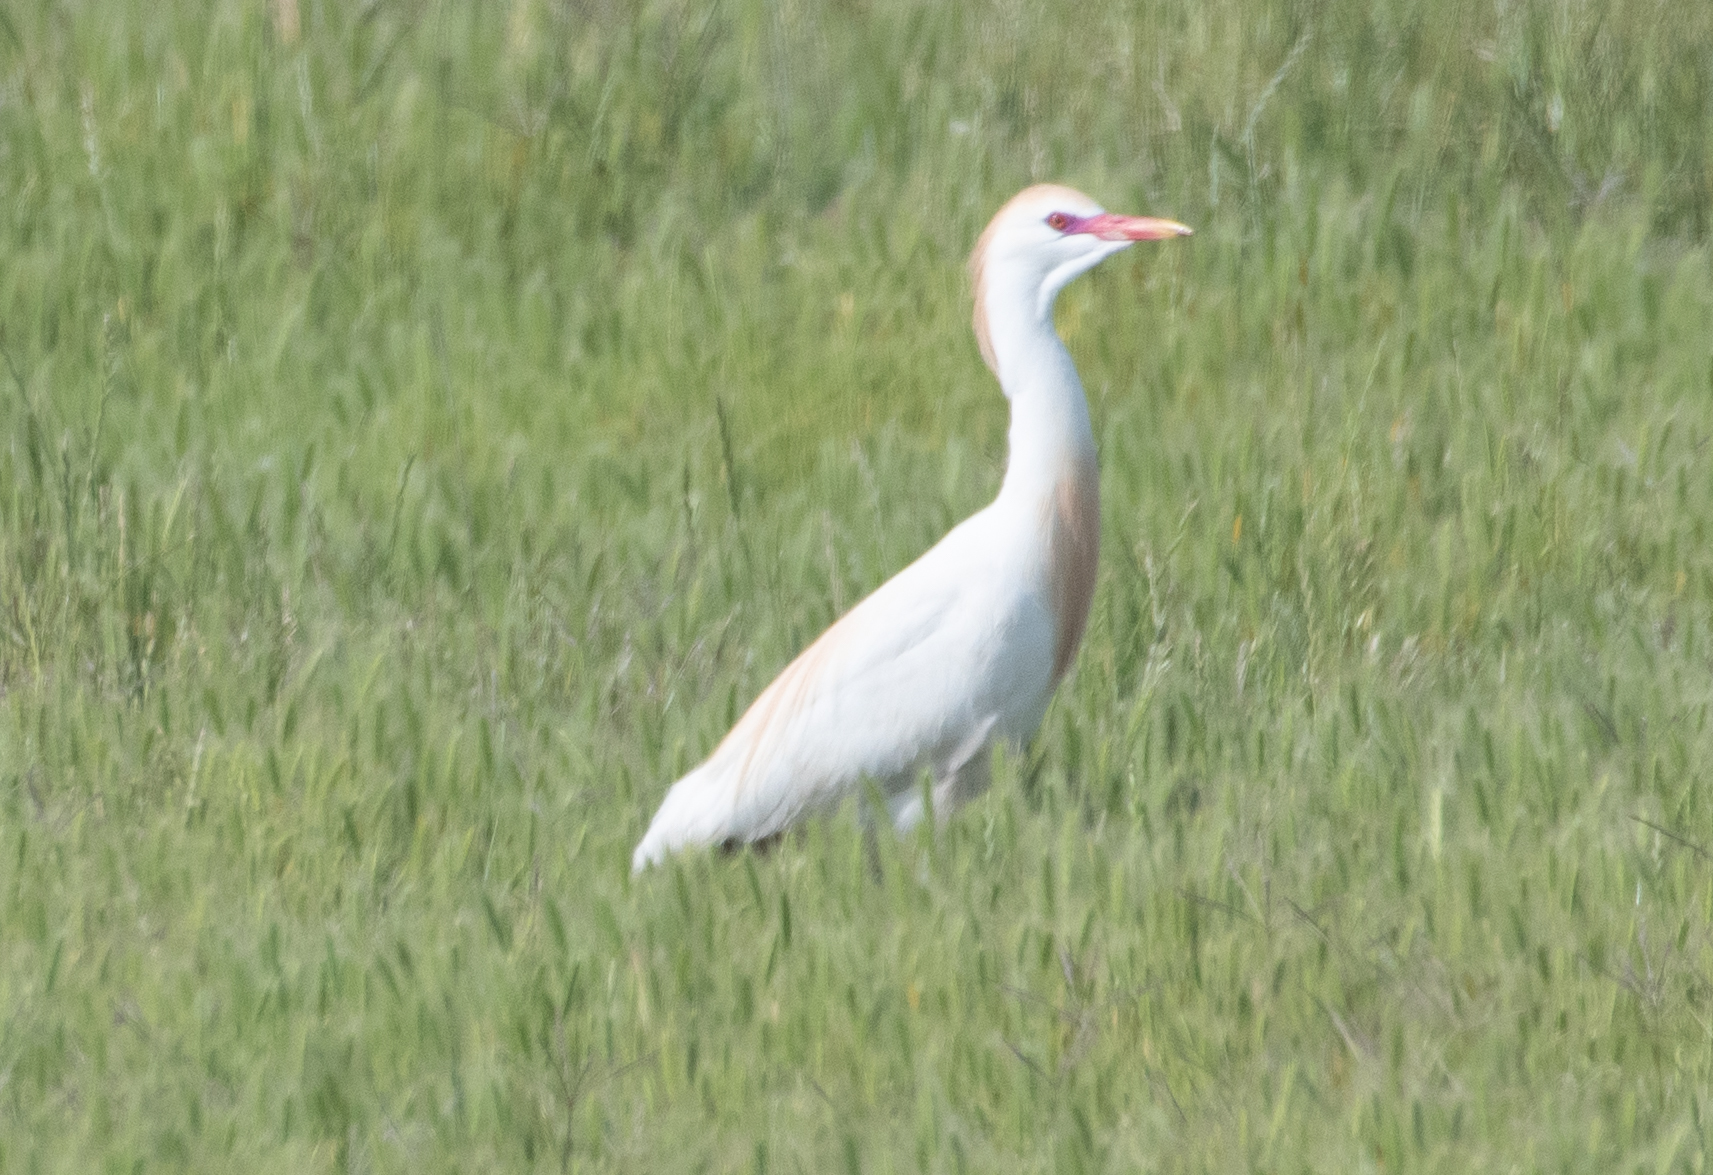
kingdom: Animalia
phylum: Chordata
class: Aves
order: Pelecaniformes
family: Ardeidae
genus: Bubulcus
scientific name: Bubulcus ibis
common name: Cattle egret
